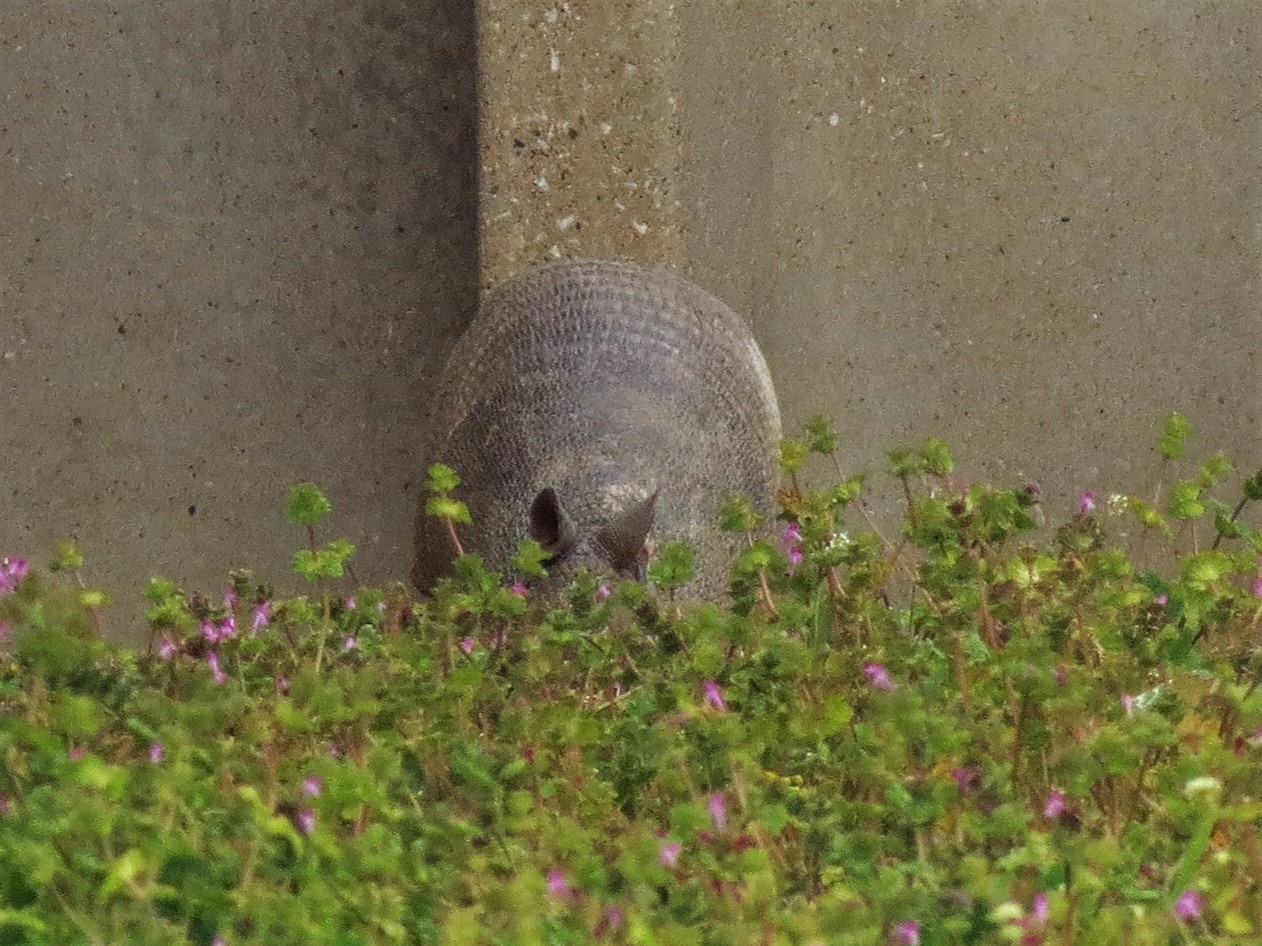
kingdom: Animalia
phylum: Chordata
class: Mammalia
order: Cingulata
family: Dasypodidae
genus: Dasypus
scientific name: Dasypus novemcinctus
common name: Nine-banded armadillo
